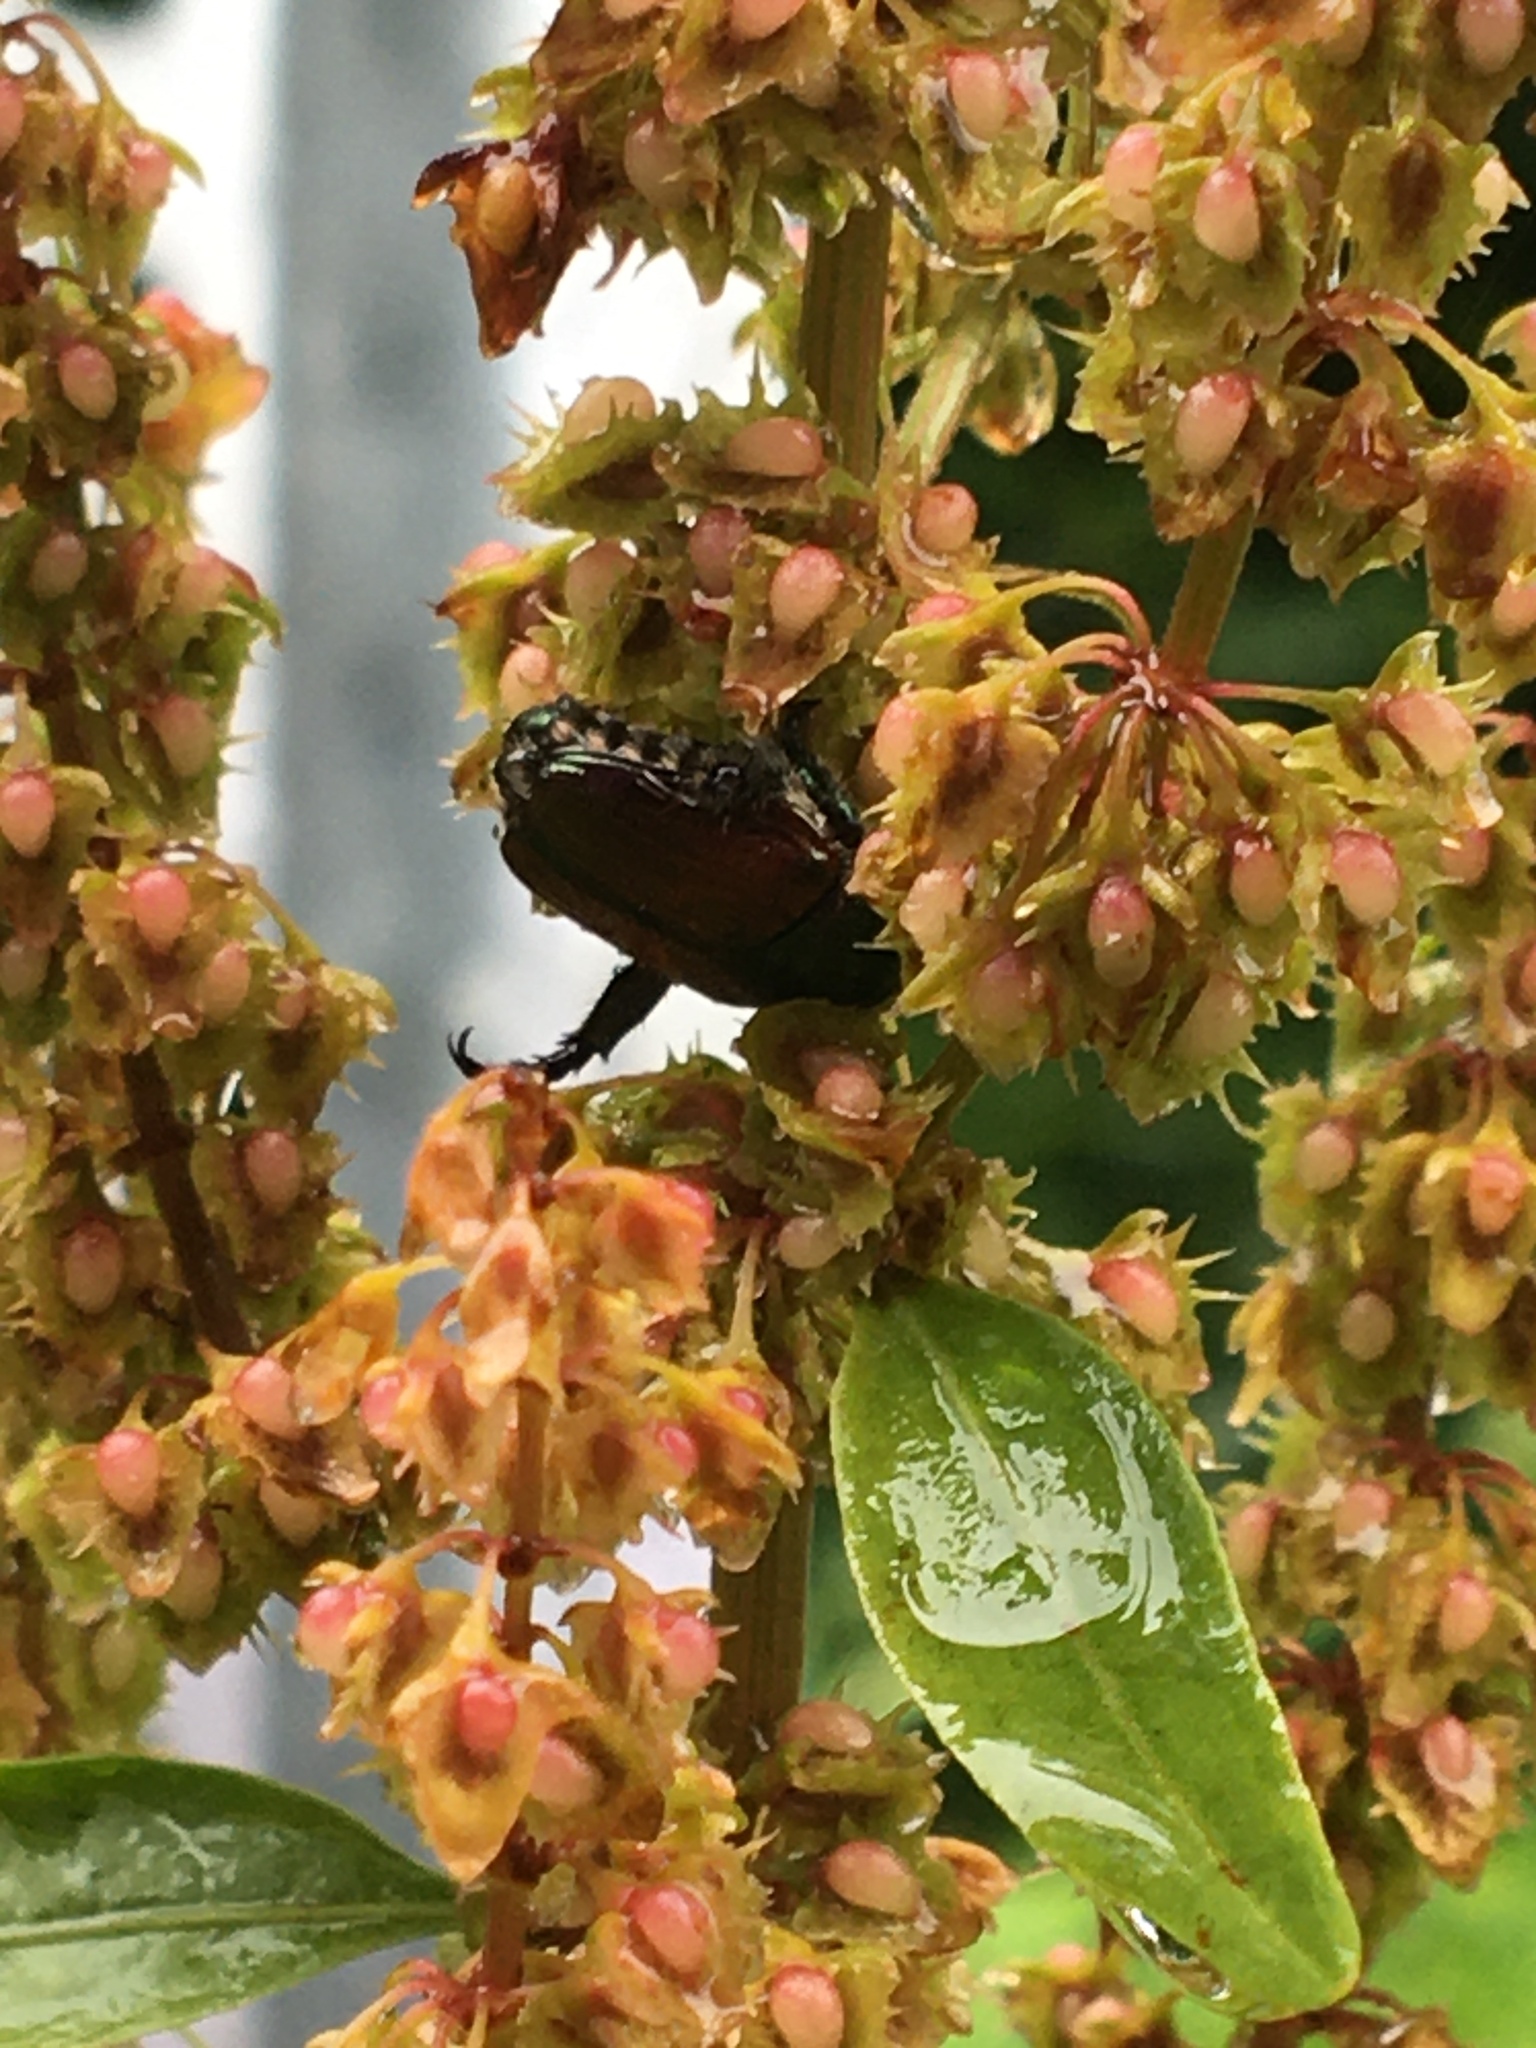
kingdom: Animalia
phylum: Arthropoda
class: Insecta
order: Coleoptera
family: Scarabaeidae
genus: Popillia
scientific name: Popillia japonica
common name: Japanese beetle
